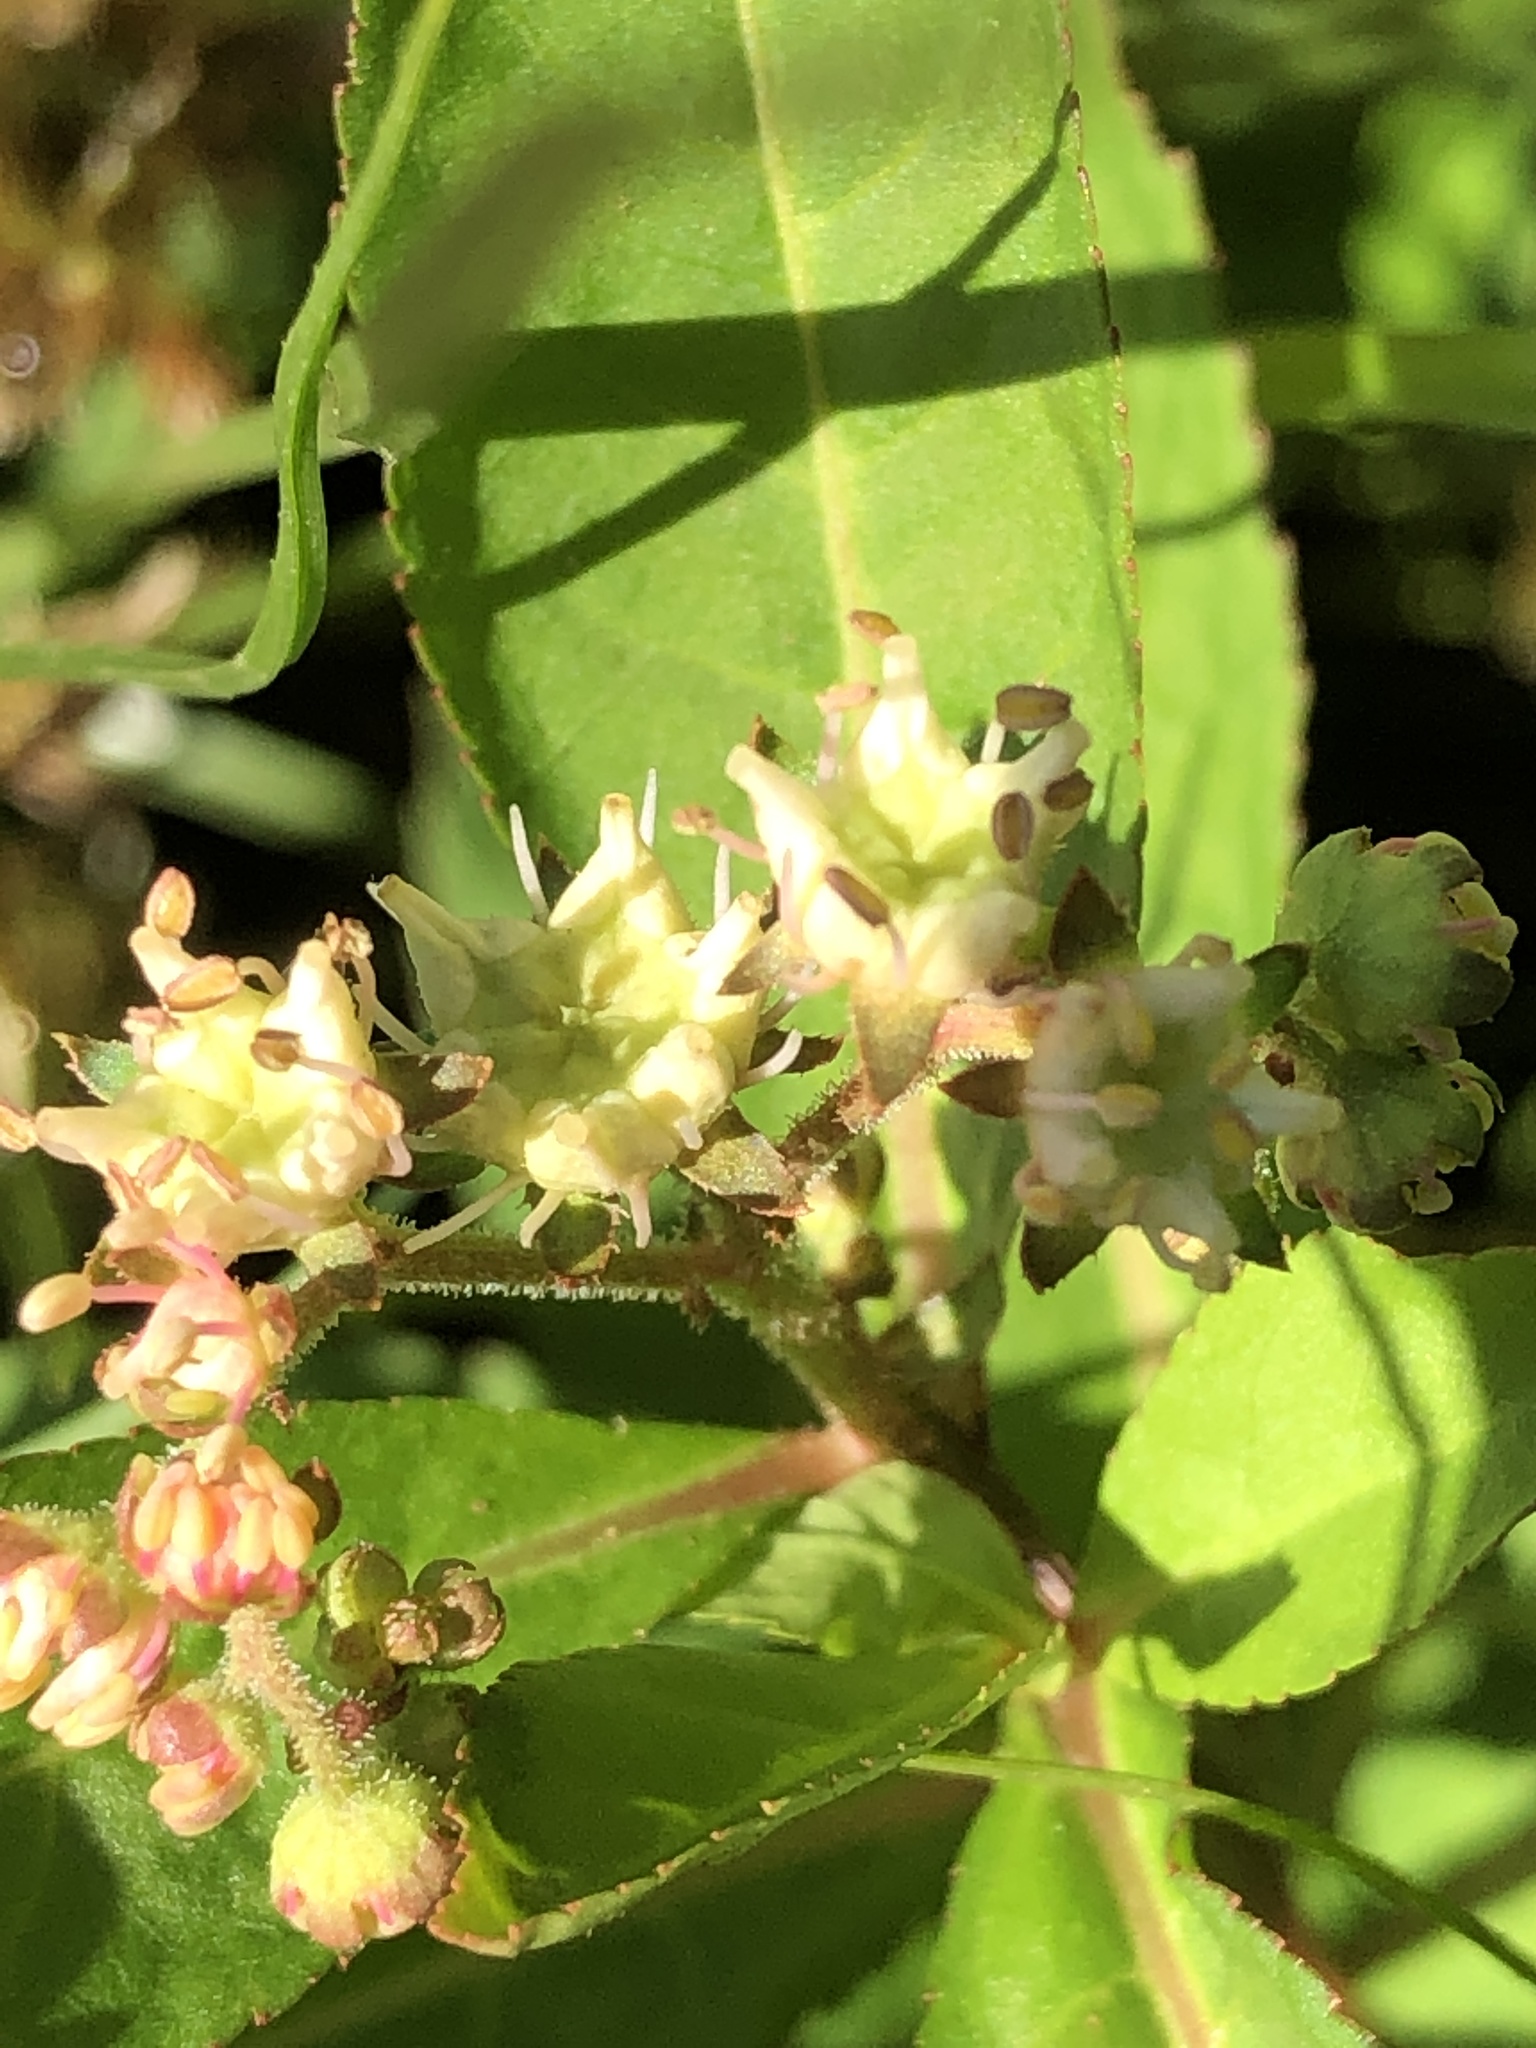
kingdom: Plantae
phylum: Tracheophyta
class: Magnoliopsida
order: Saxifragales
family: Penthoraceae
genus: Penthorum
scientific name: Penthorum sedoides
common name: Ditch stonecrop
